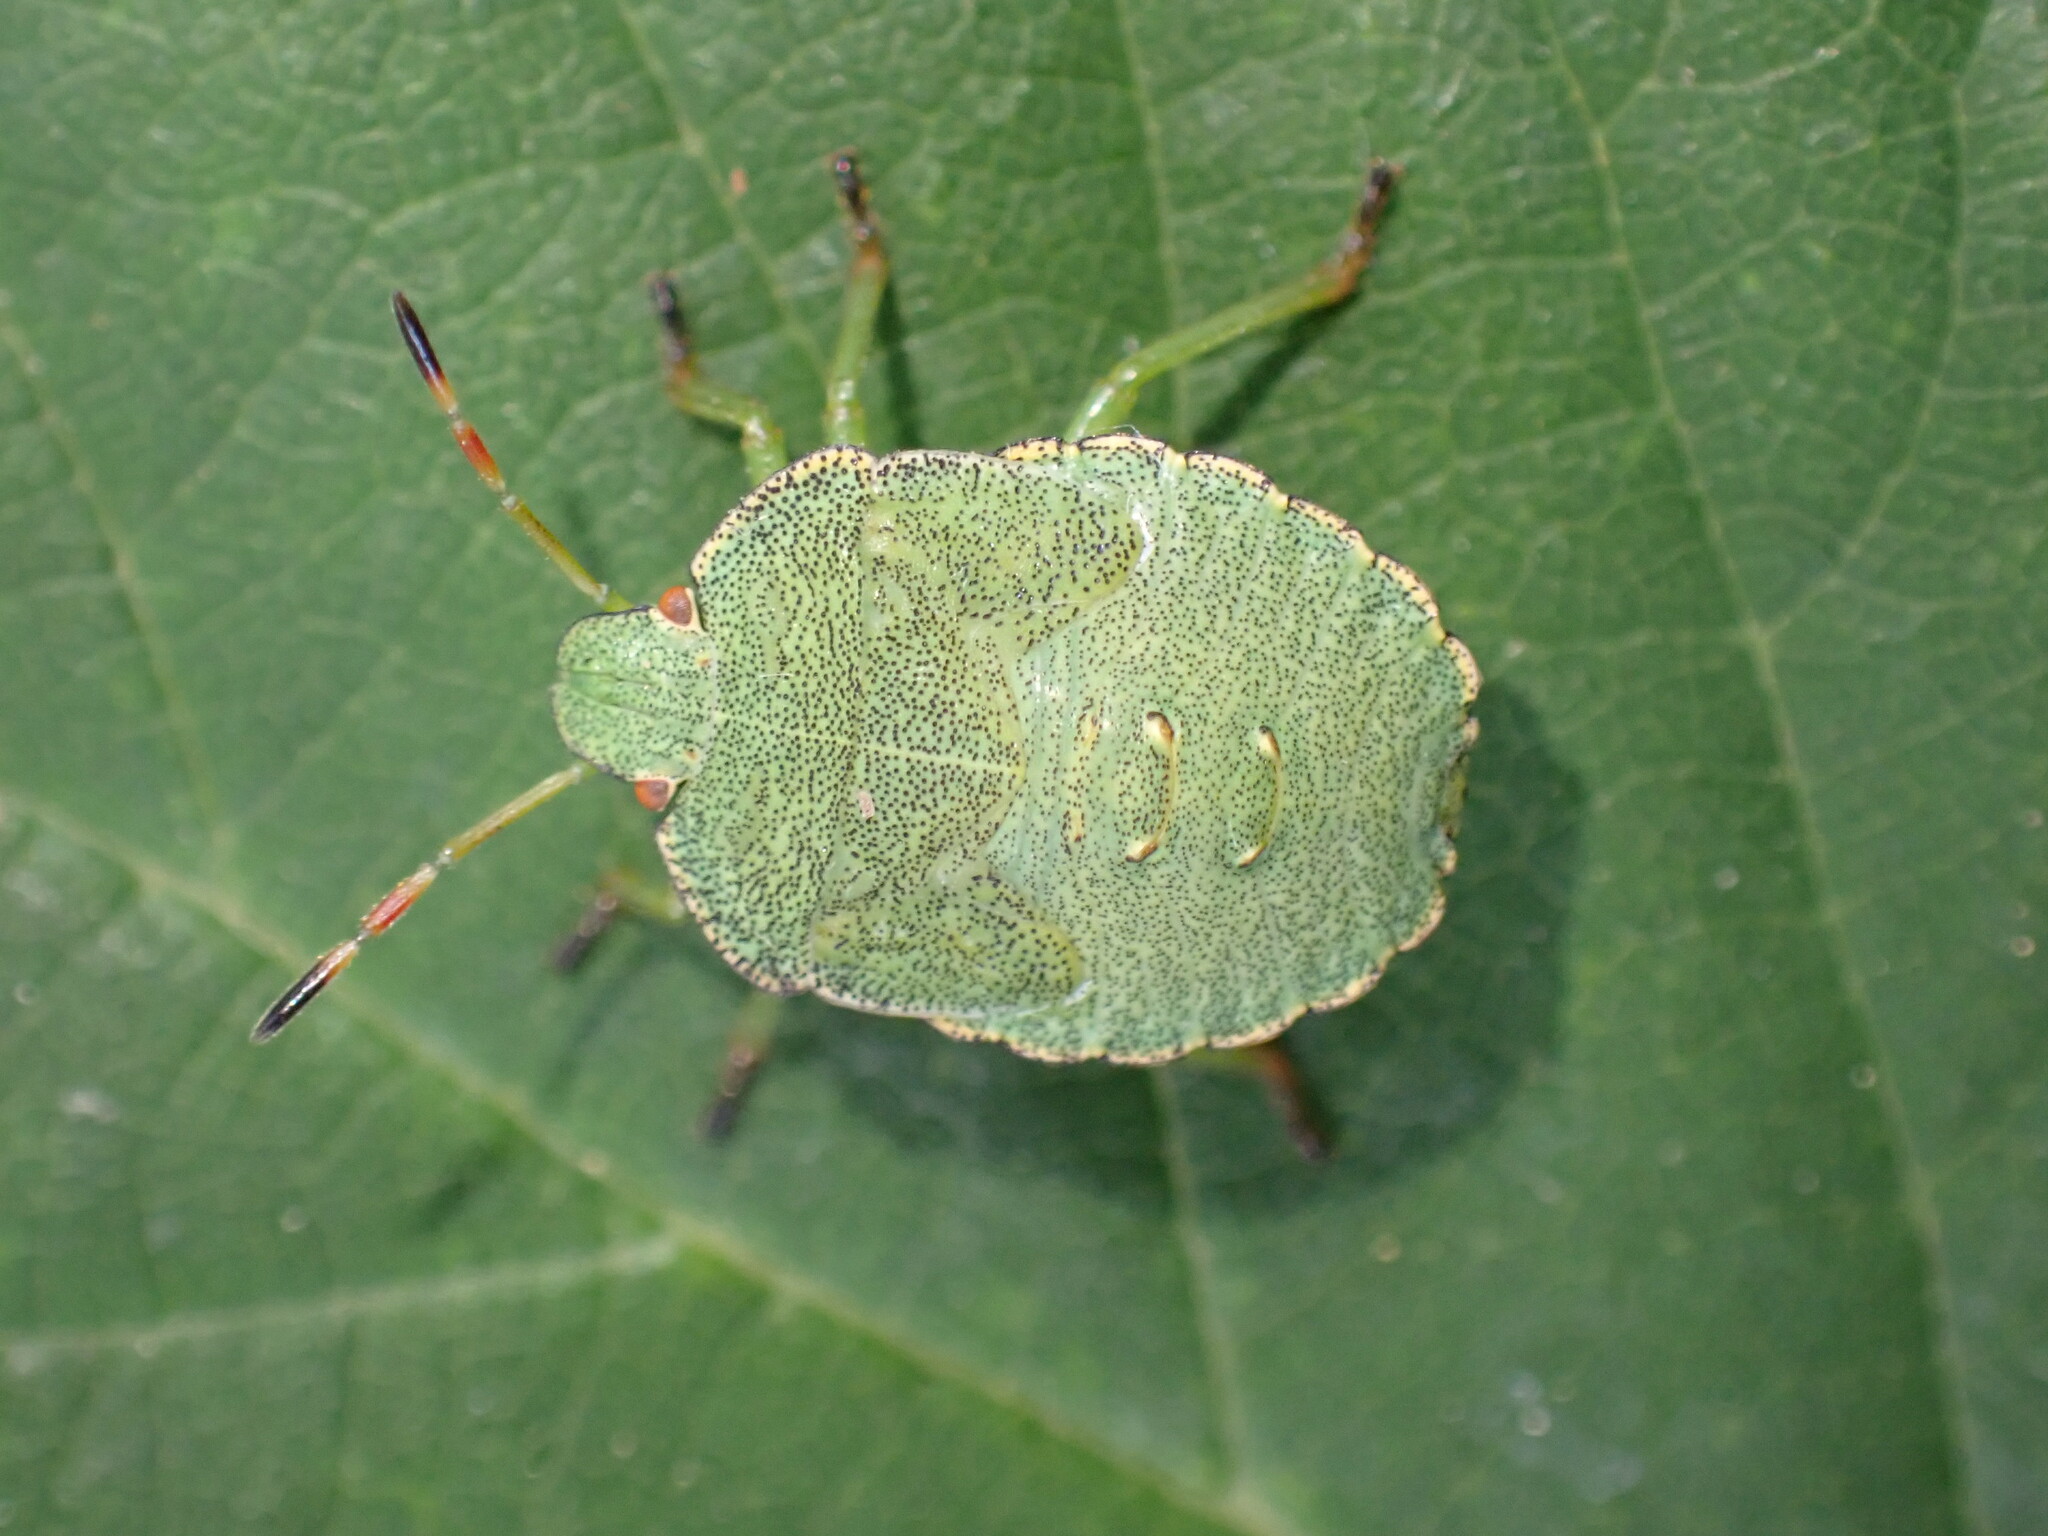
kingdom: Animalia
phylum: Arthropoda
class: Insecta
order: Hemiptera
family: Pentatomidae
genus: Palomena
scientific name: Palomena prasina
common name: Green shieldbug
